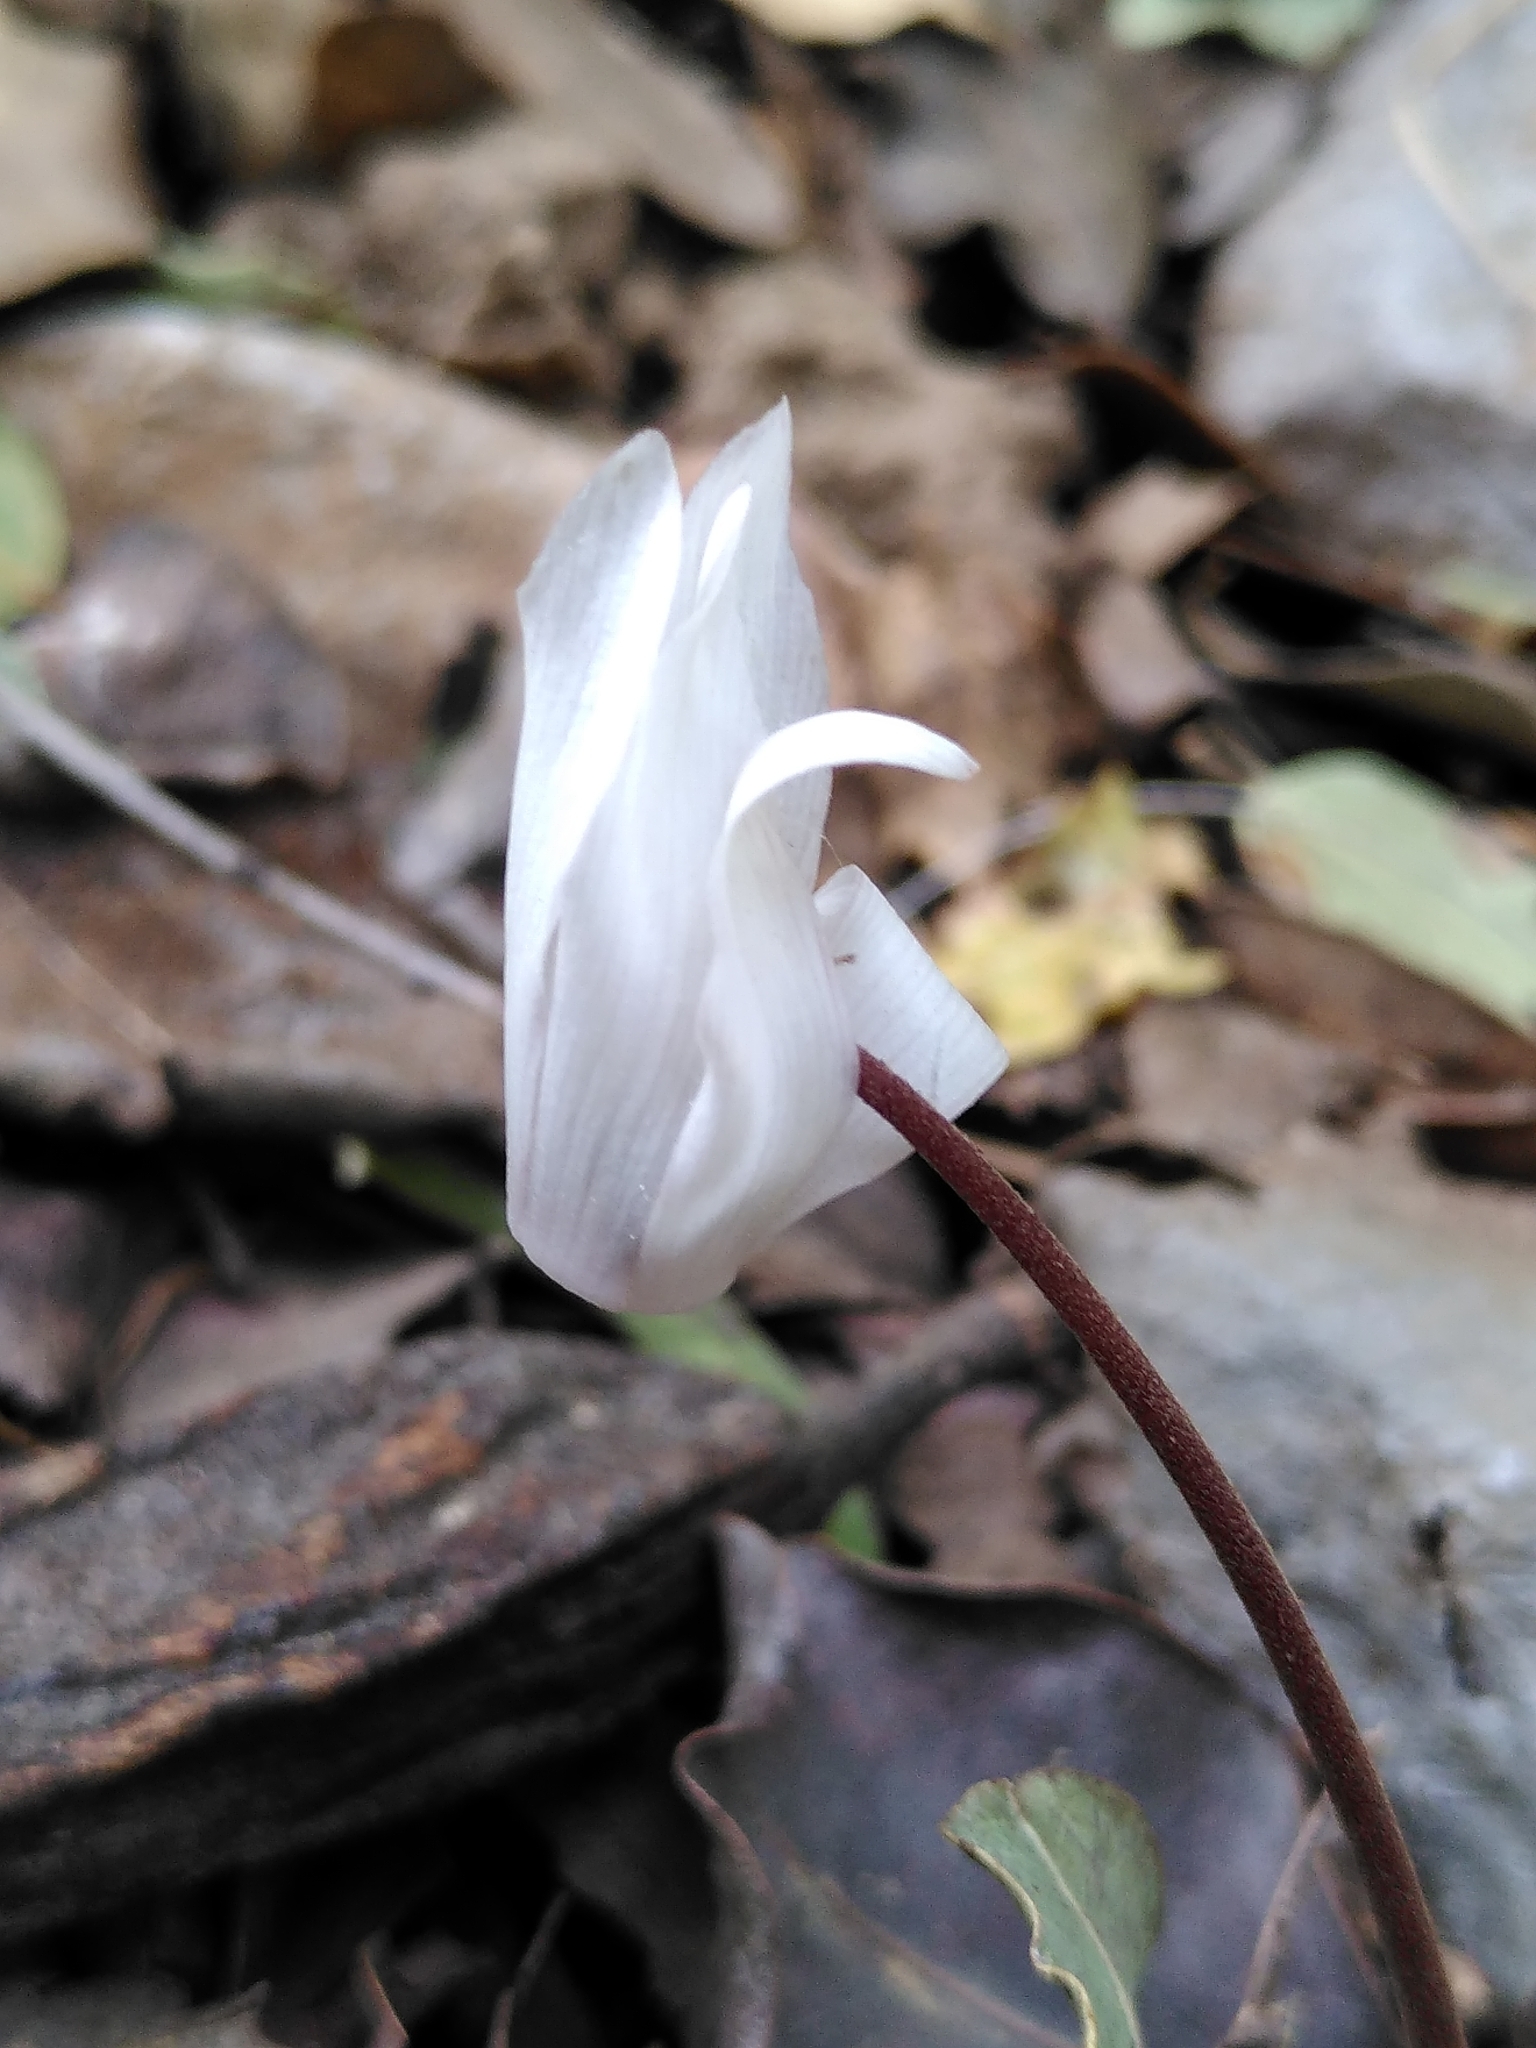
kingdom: Plantae
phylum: Tracheophyta
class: Magnoliopsida
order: Ericales
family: Primulaceae
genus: Cyclamen
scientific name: Cyclamen creticum
